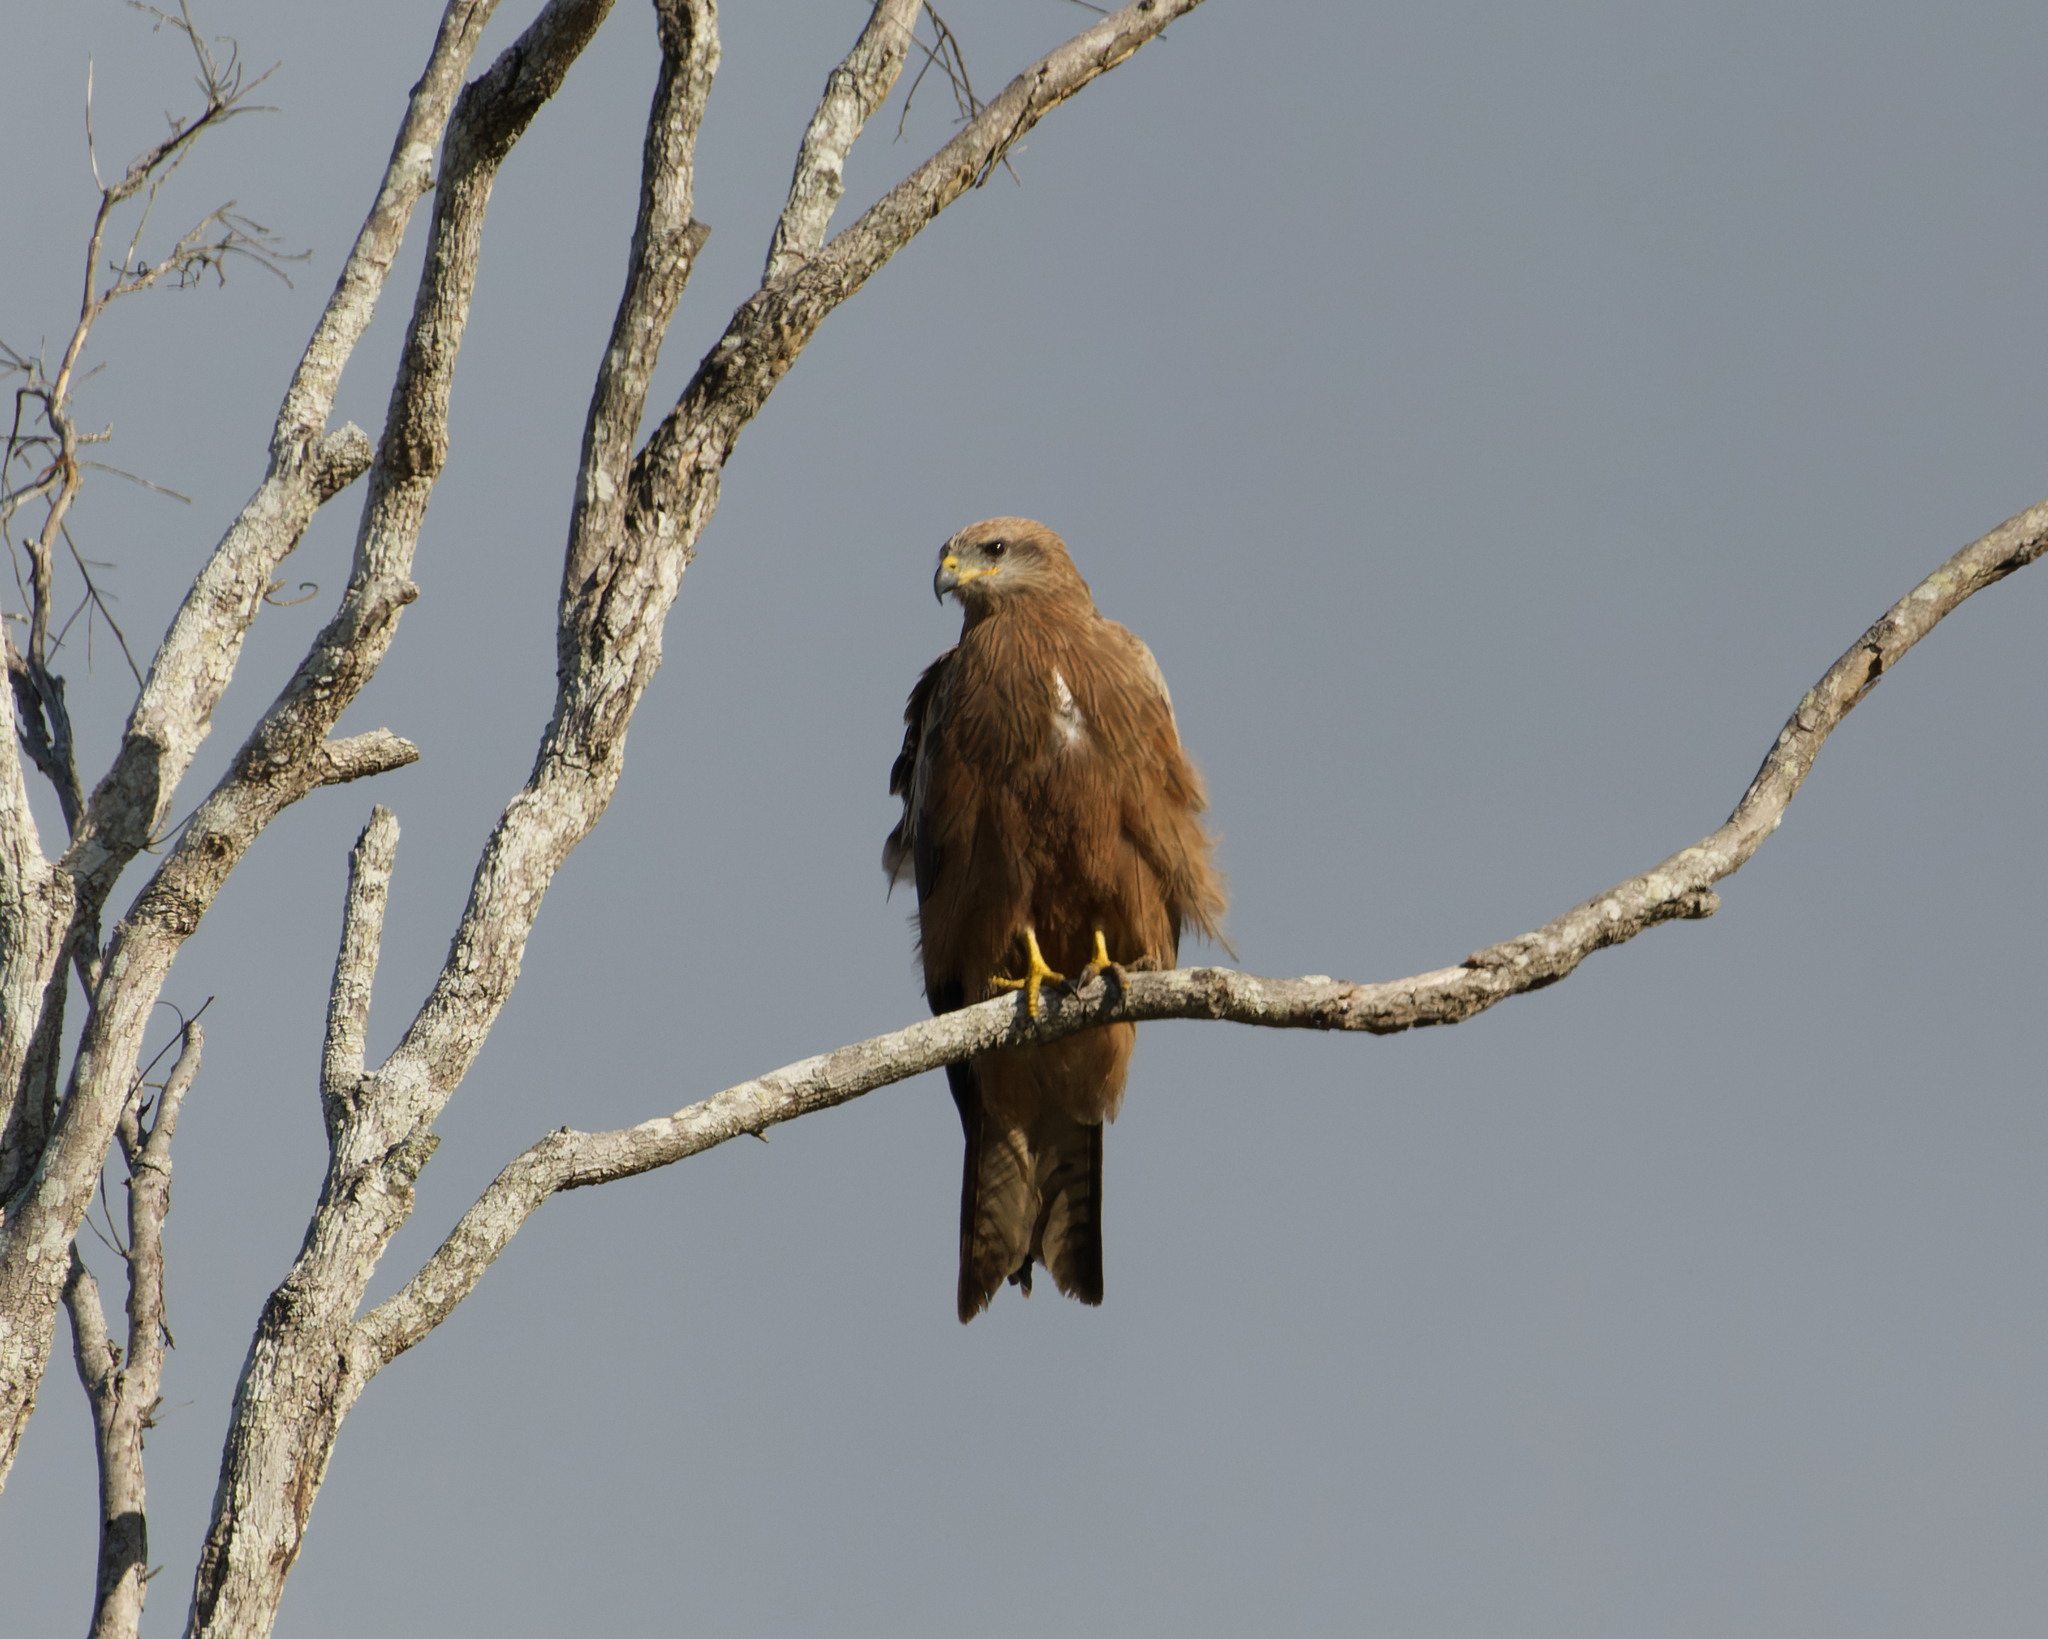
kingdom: Animalia
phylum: Chordata
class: Aves
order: Accipitriformes
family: Accipitridae
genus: Milvus
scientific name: Milvus migrans
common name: Black kite
